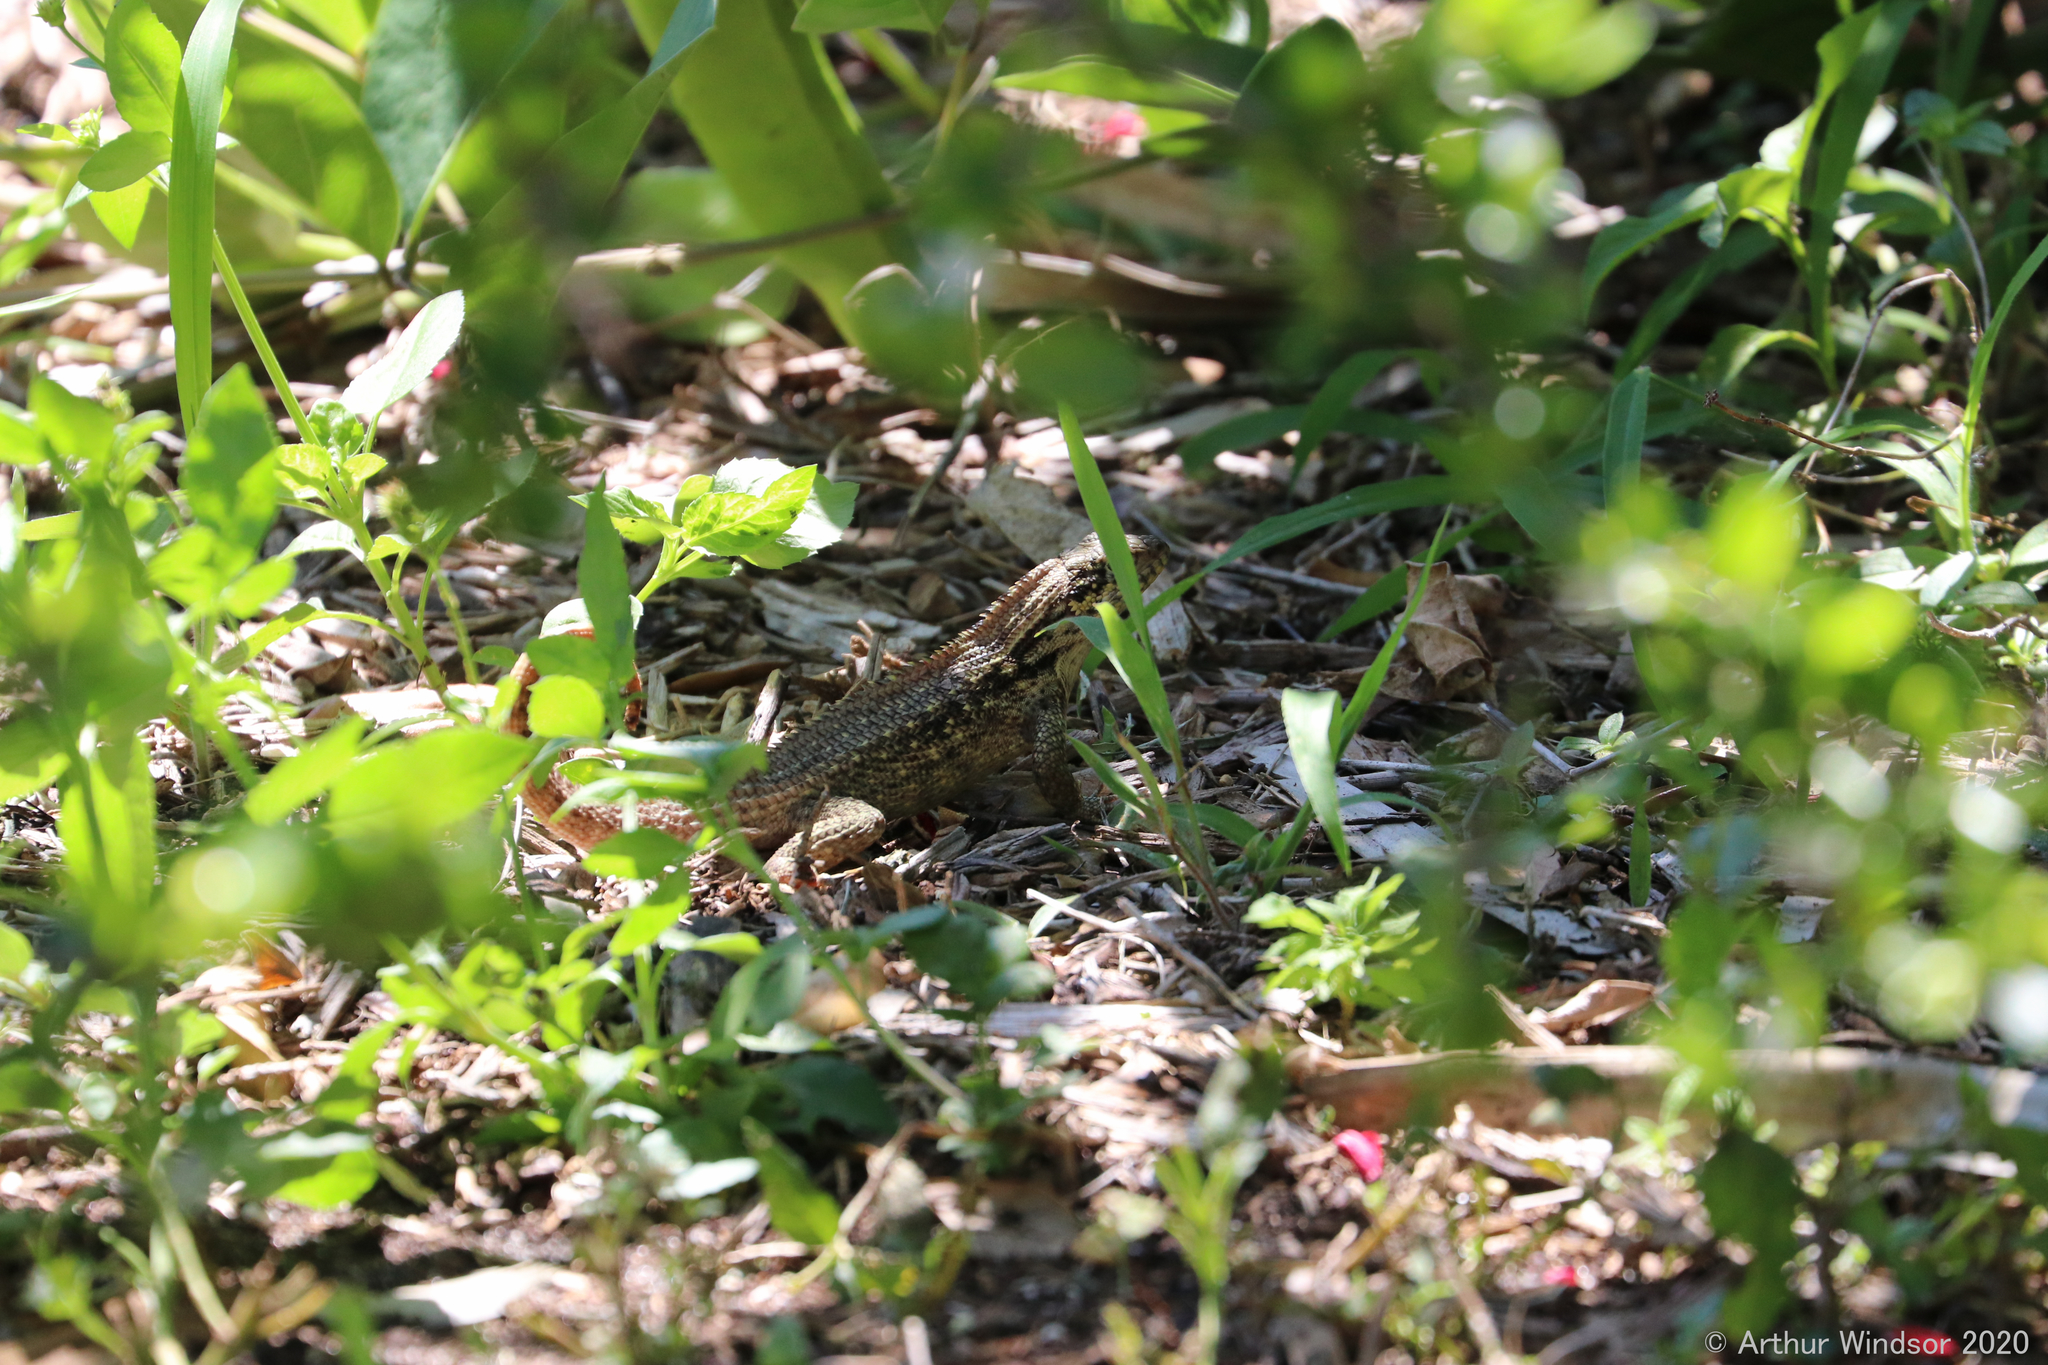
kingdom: Animalia
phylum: Chordata
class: Squamata
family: Leiocephalidae
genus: Leiocephalus
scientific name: Leiocephalus carinatus
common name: Northern curly-tailed lizard
